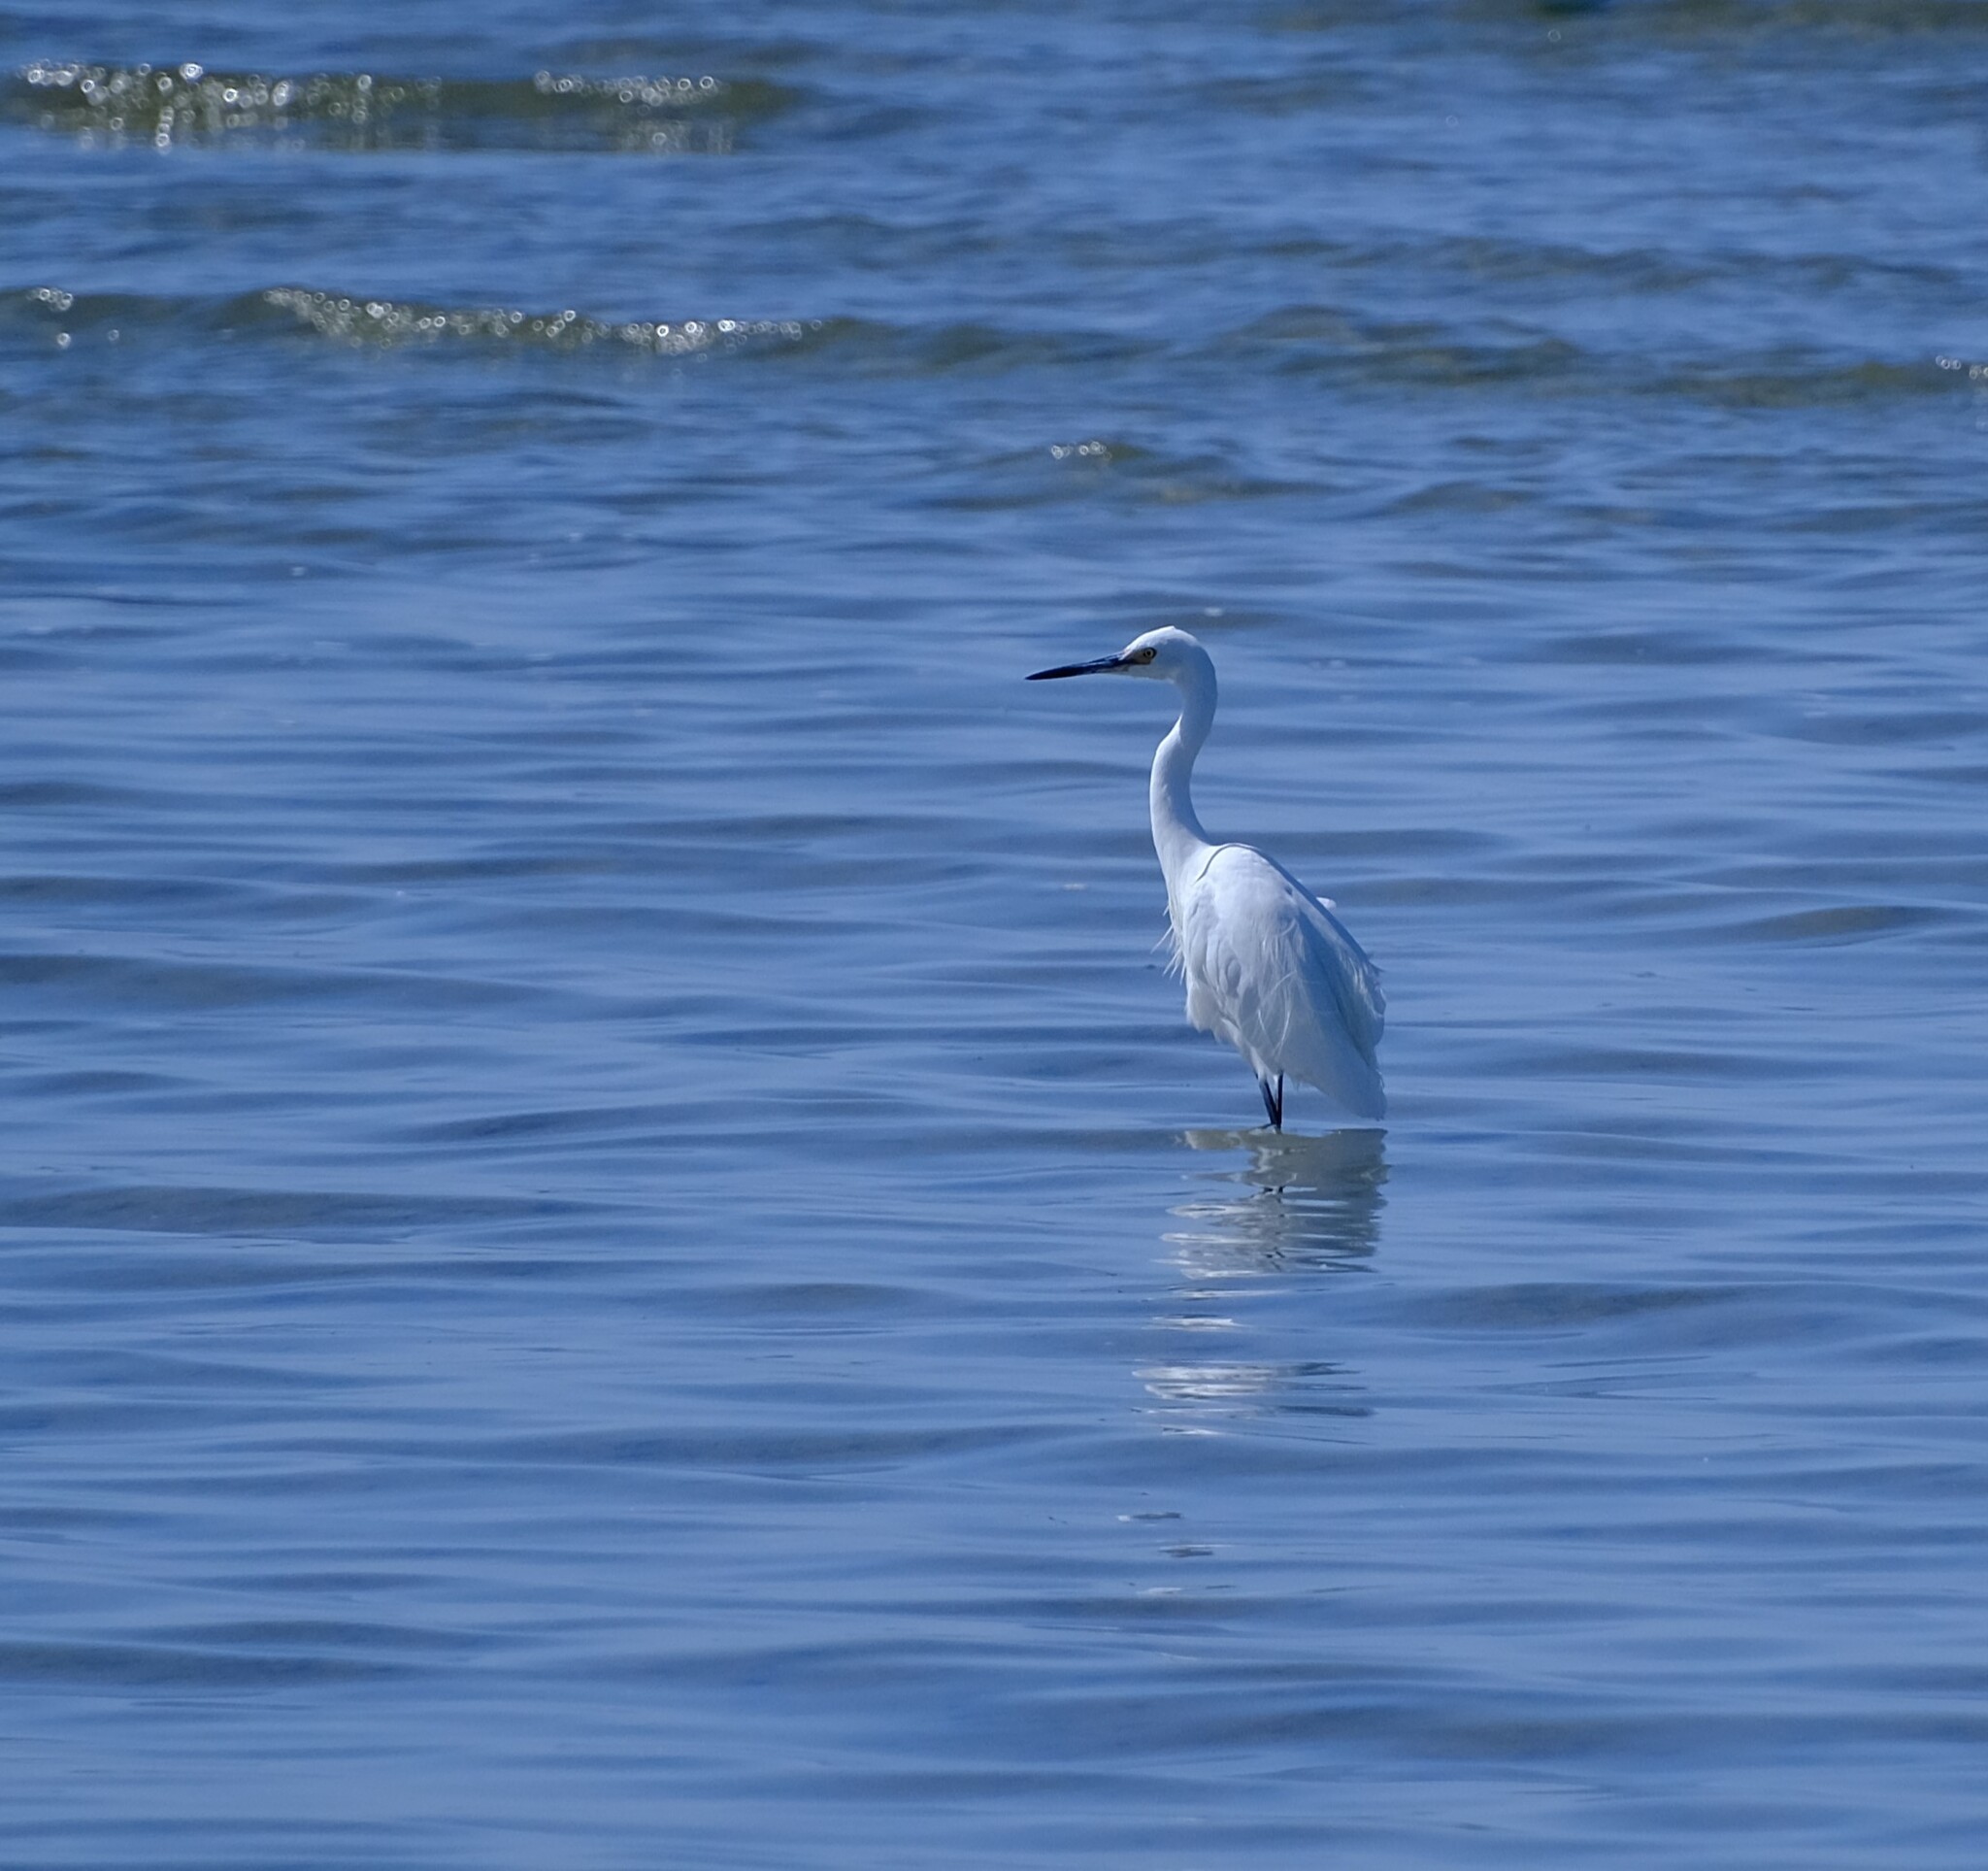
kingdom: Animalia
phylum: Chordata
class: Aves
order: Pelecaniformes
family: Ardeidae
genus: Egretta
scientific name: Egretta garzetta
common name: Little egret
